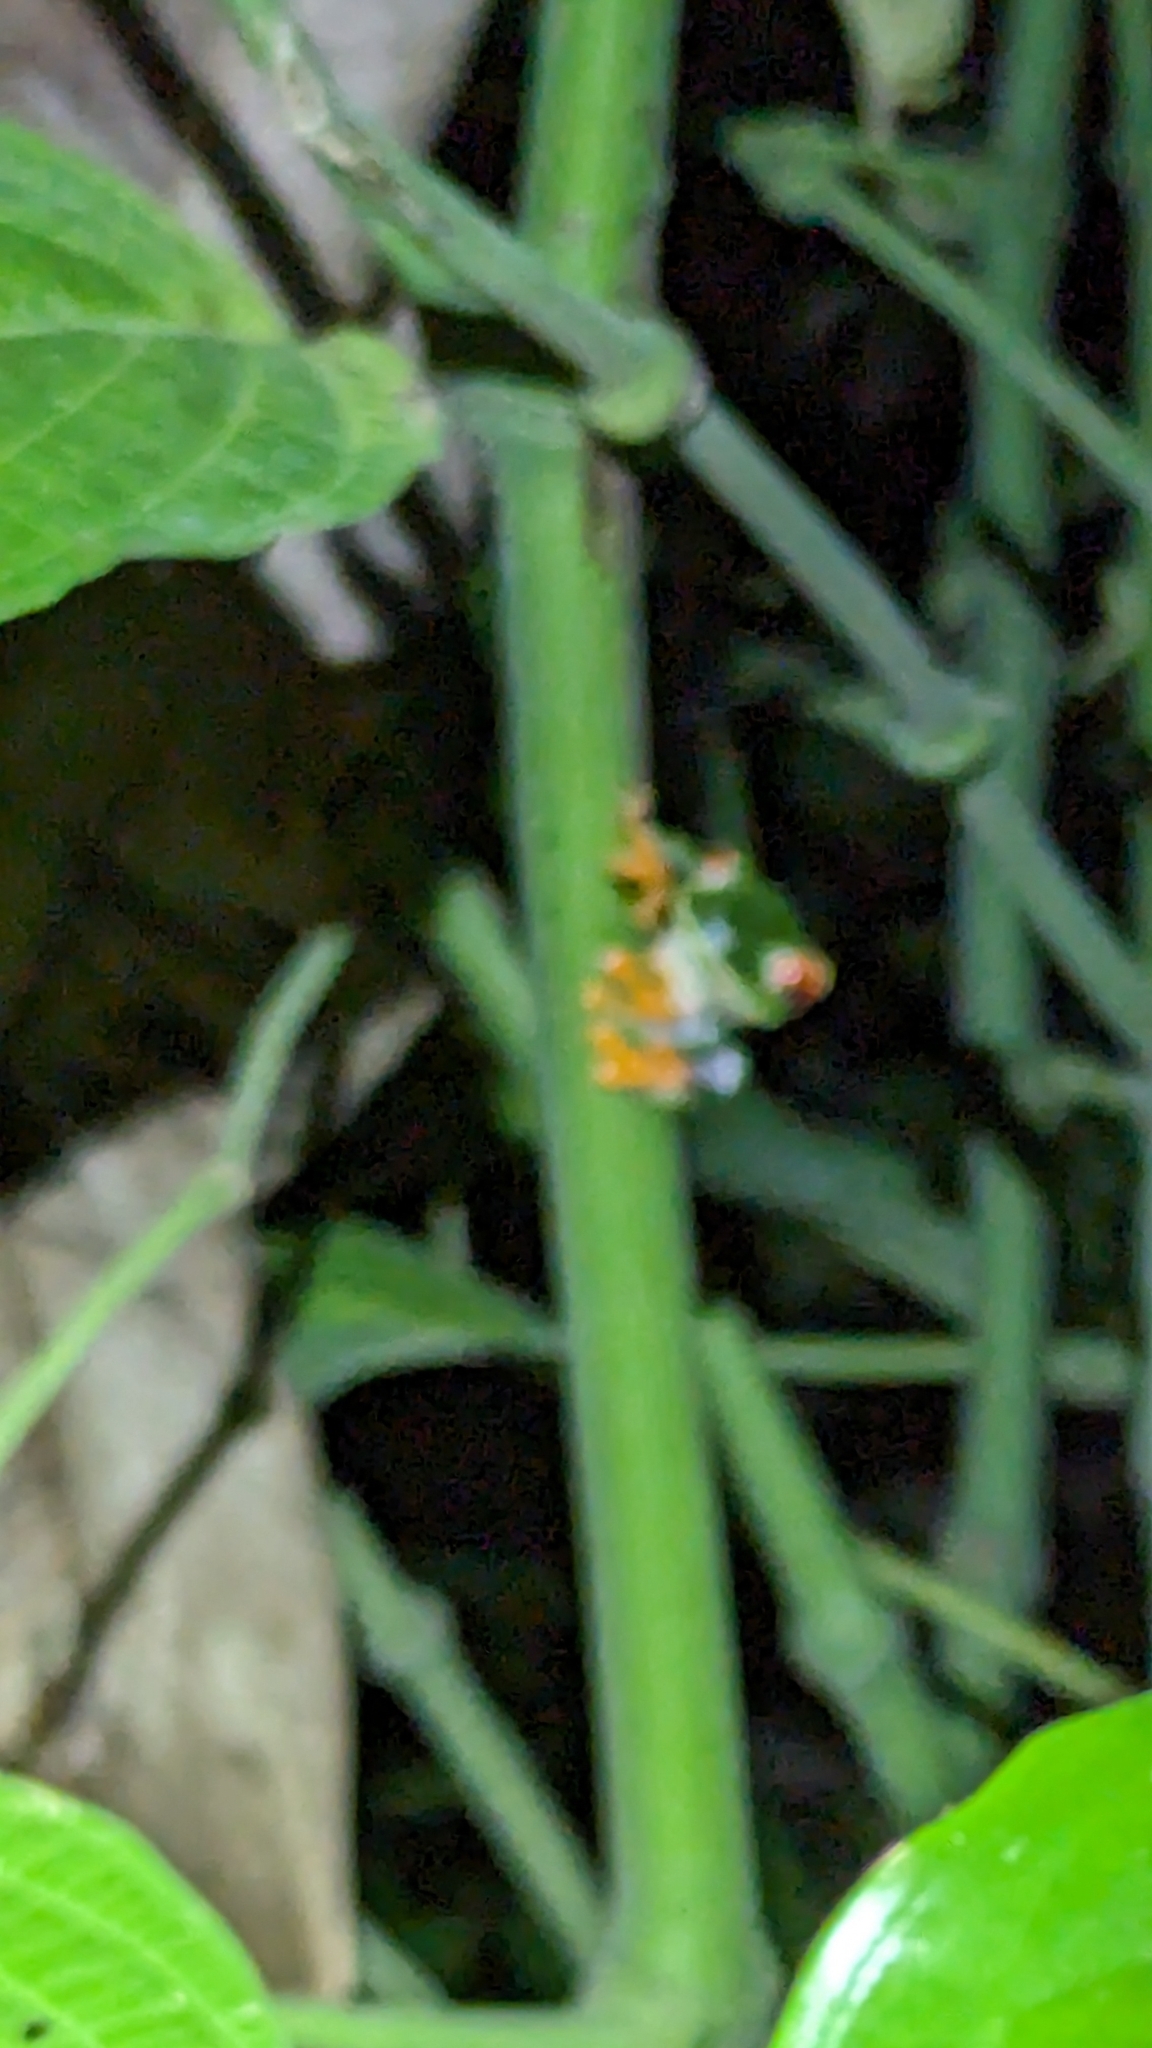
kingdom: Animalia
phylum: Chordata
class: Amphibia
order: Anura
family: Phyllomedusidae
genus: Agalychnis
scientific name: Agalychnis callidryas
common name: Red-eyed treefrog
